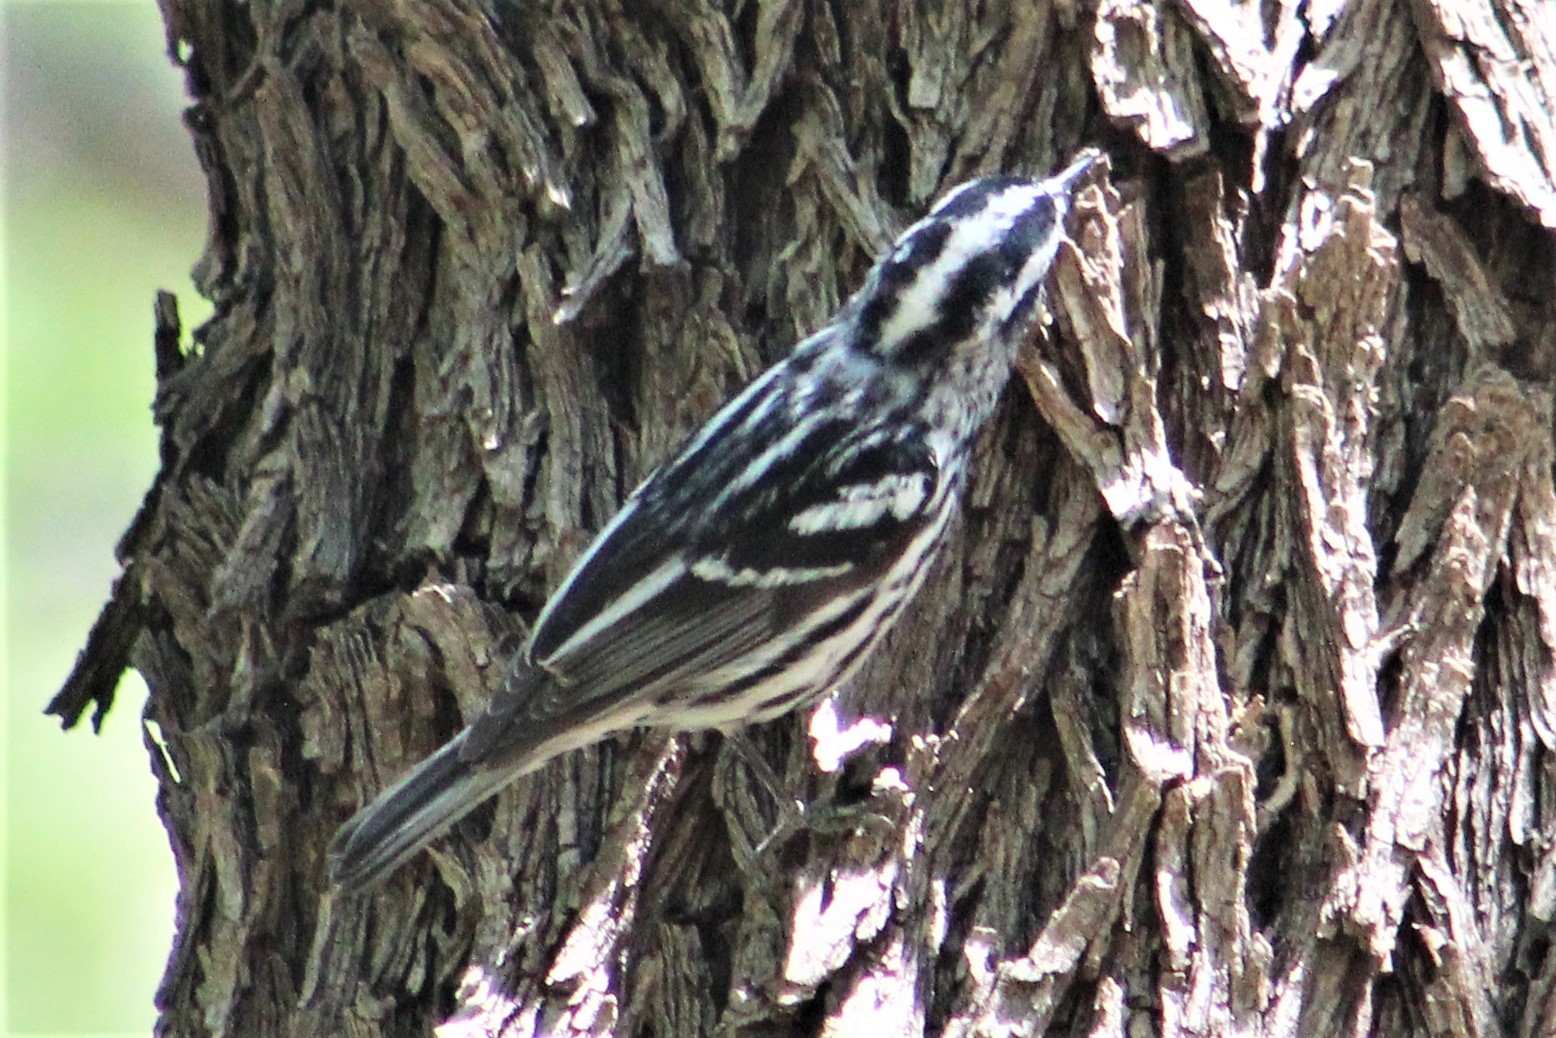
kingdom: Animalia
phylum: Chordata
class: Aves
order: Passeriformes
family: Parulidae
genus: Mniotilta
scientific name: Mniotilta varia
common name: Black-and-white warbler
